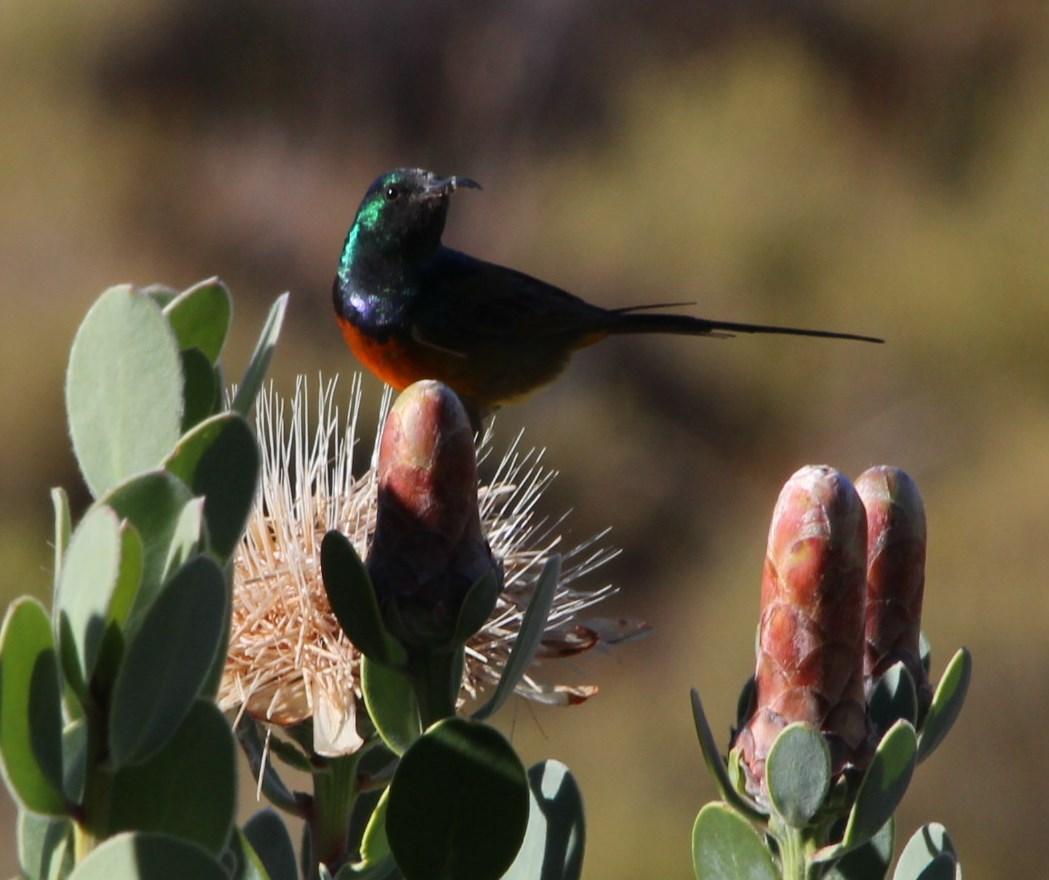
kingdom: Animalia
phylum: Chordata
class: Aves
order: Passeriformes
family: Nectariniidae
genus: Anthobaphes
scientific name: Anthobaphes violacea
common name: Orange-breasted sunbird
